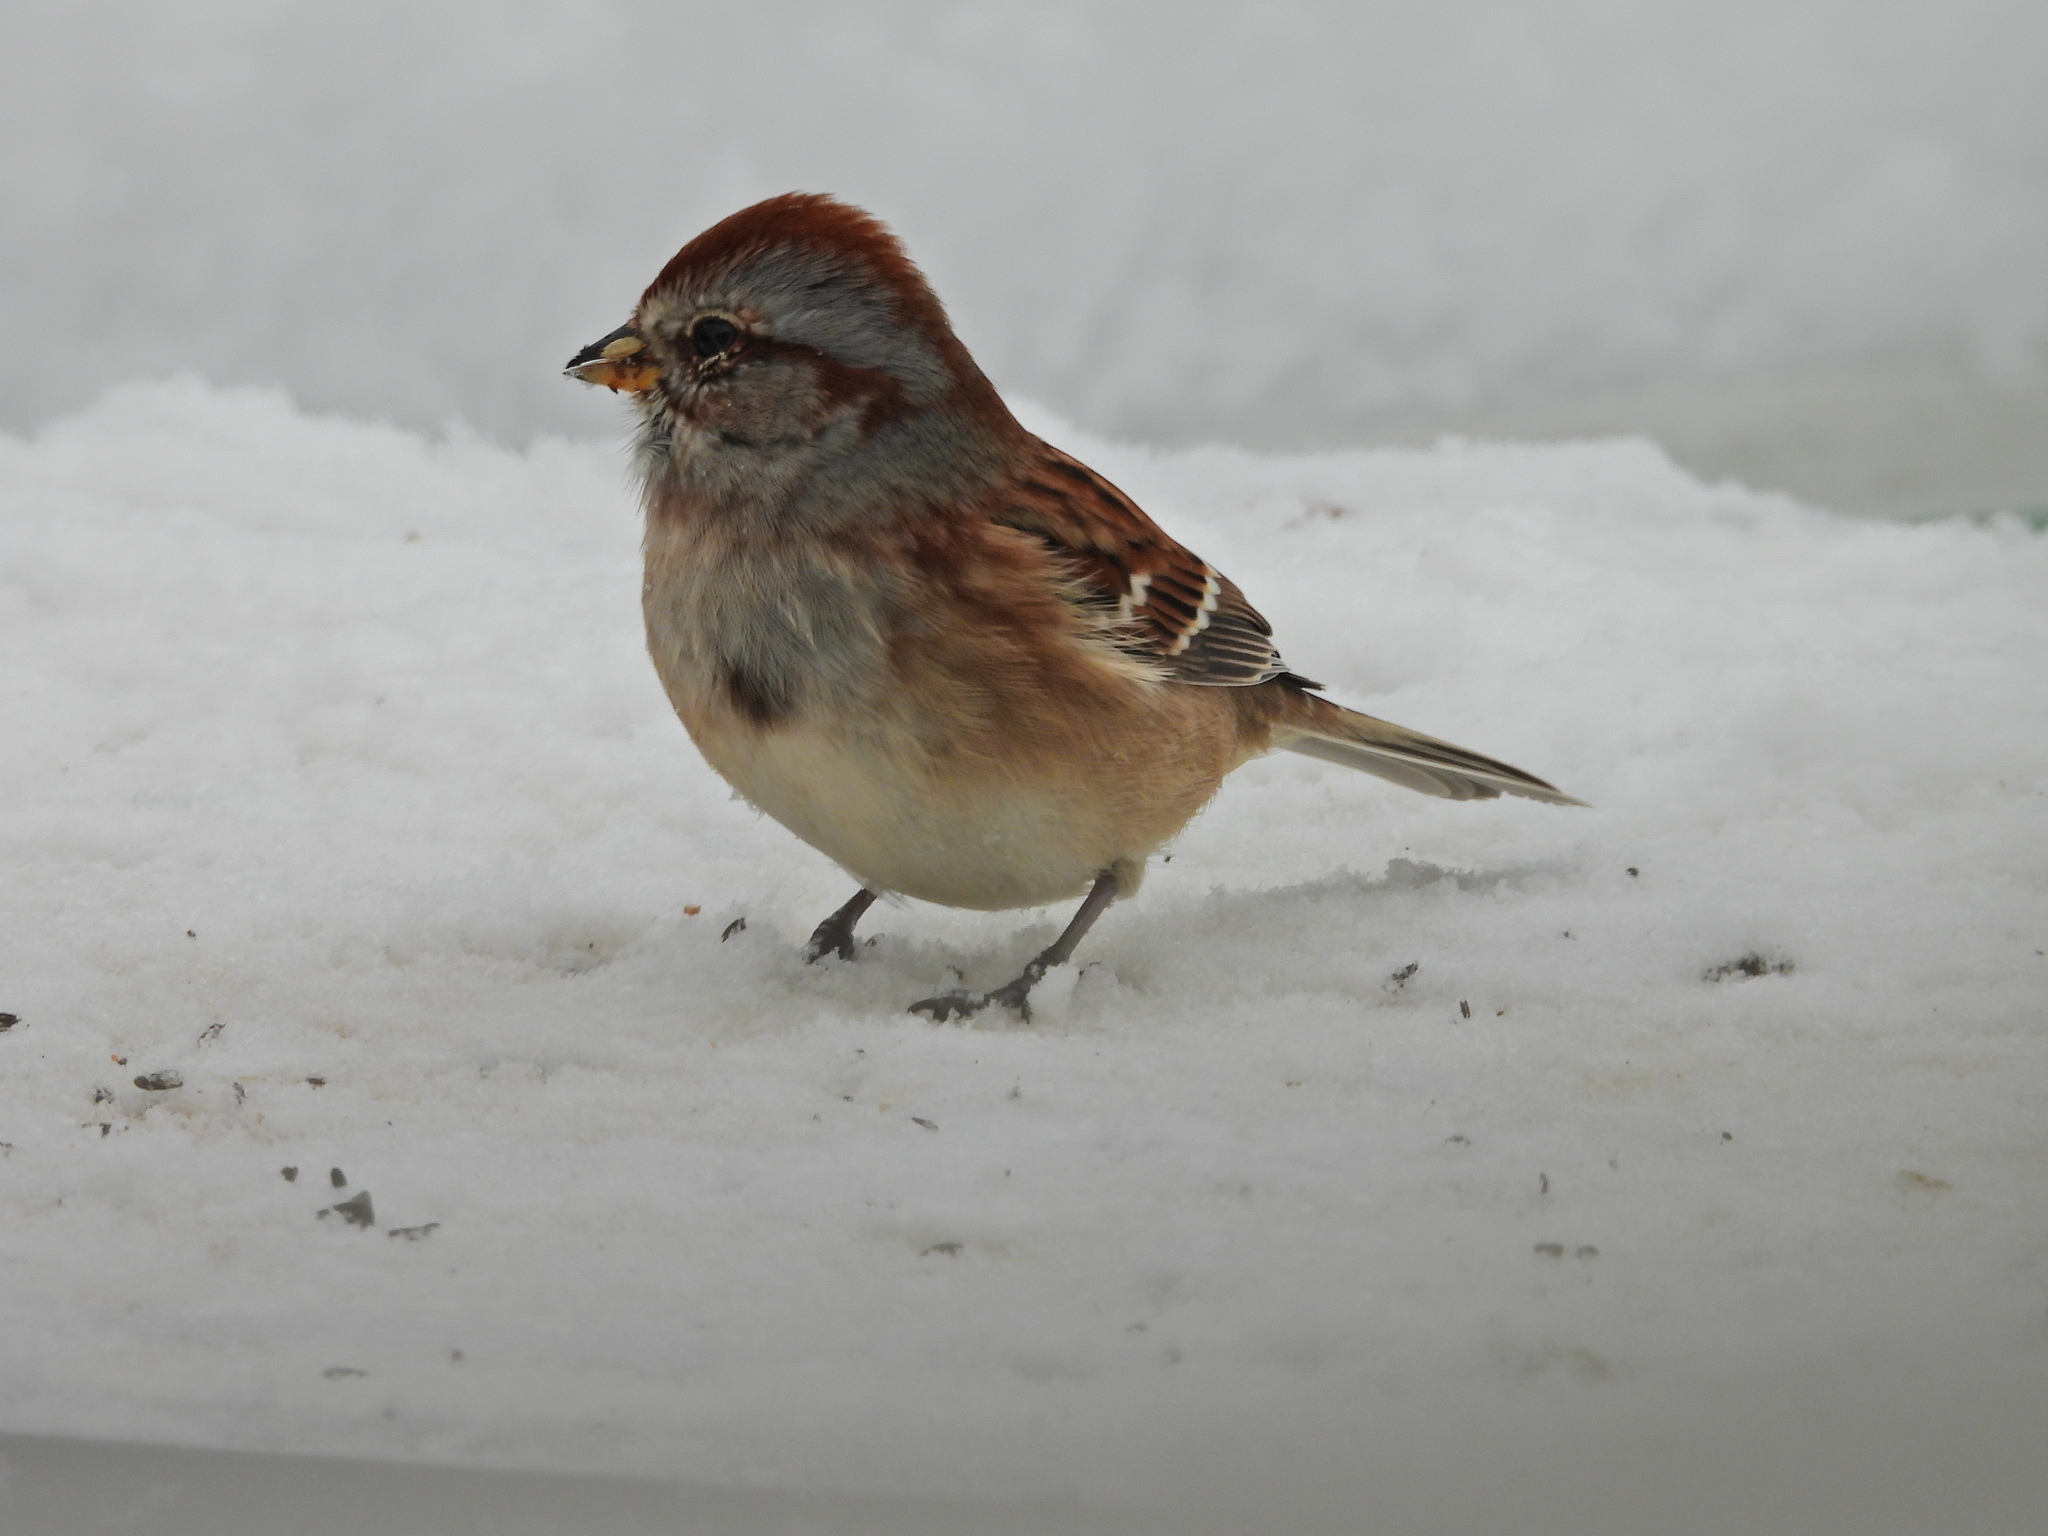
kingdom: Animalia
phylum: Chordata
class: Aves
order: Passeriformes
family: Passerellidae
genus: Spizelloides
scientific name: Spizelloides arborea
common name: American tree sparrow
